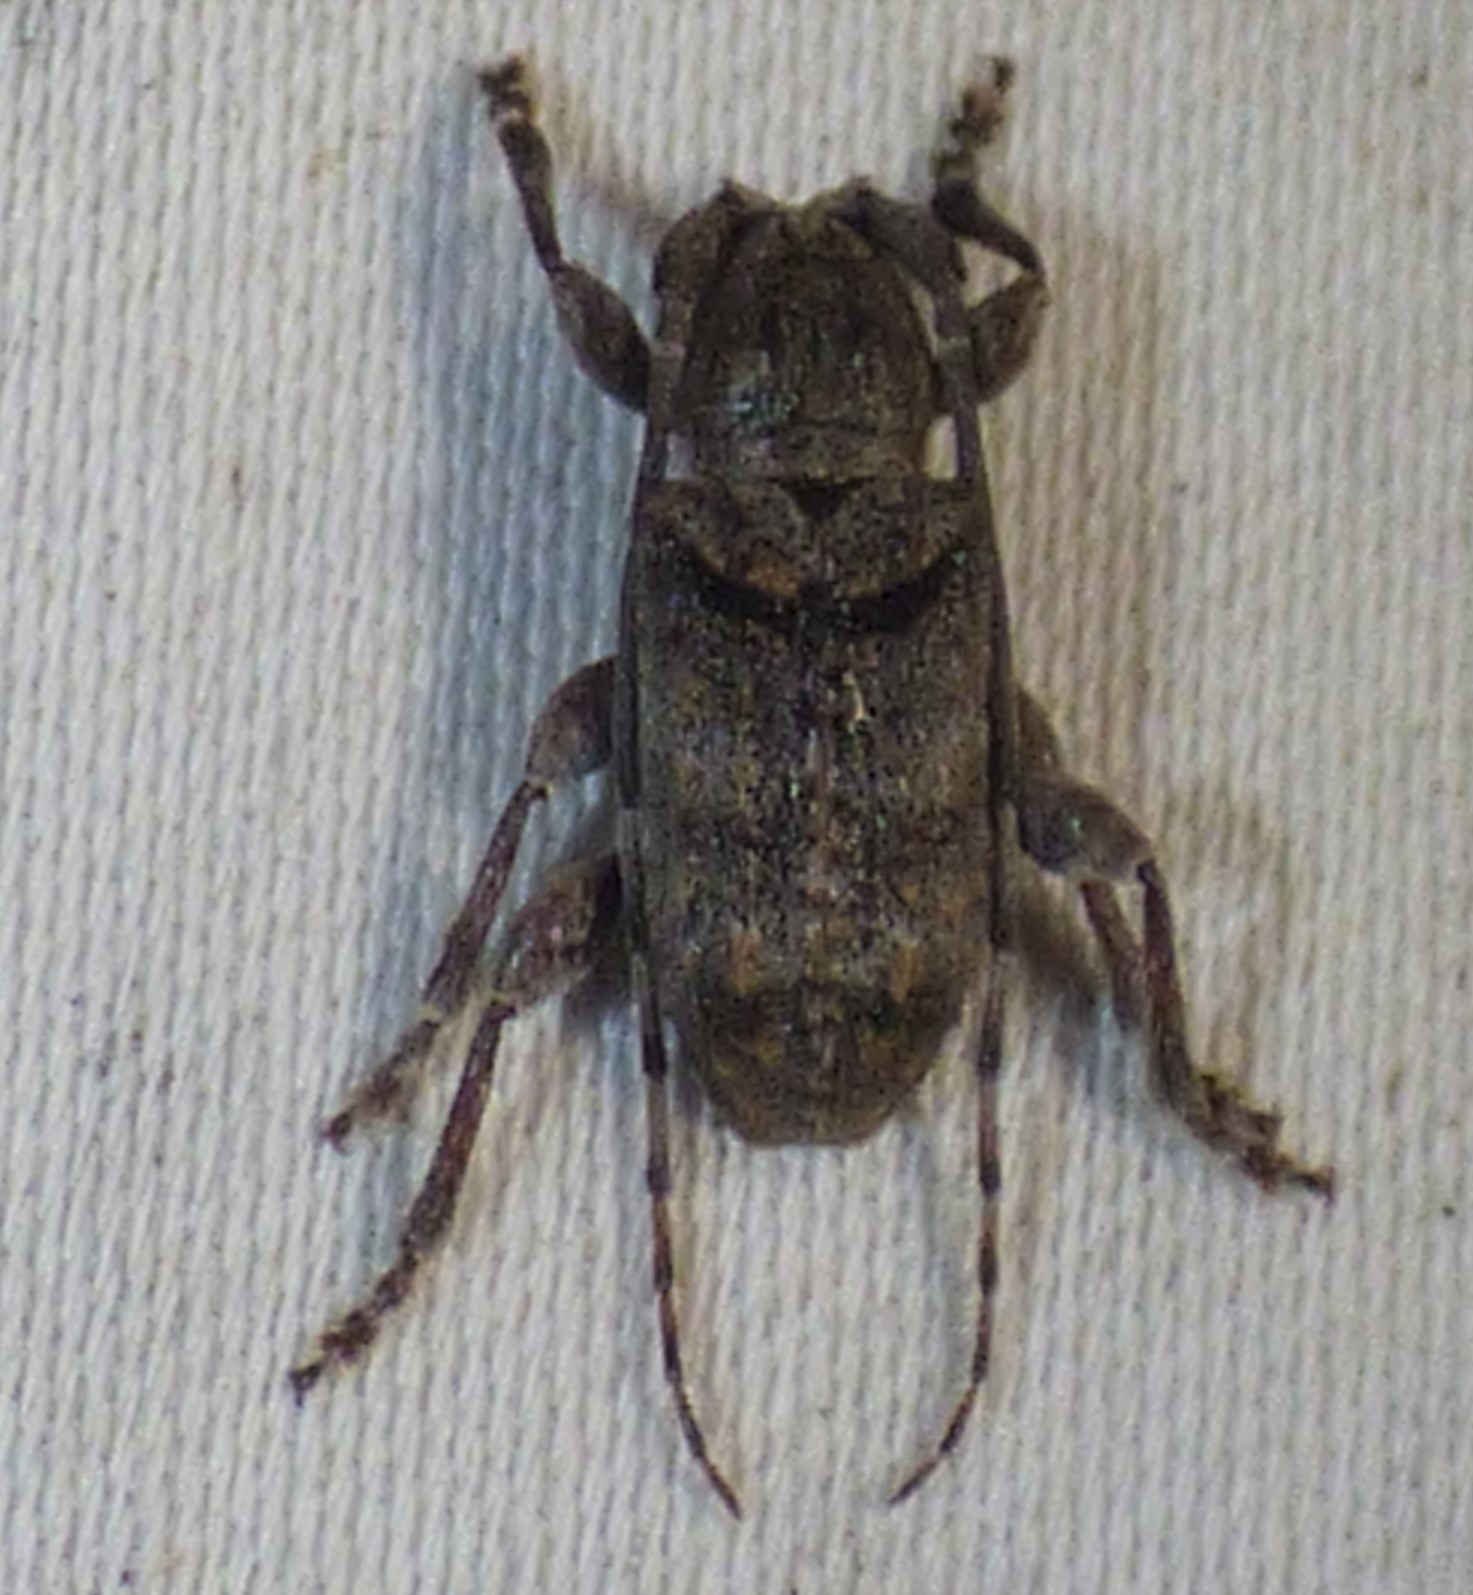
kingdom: Animalia
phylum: Arthropoda
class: Insecta
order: Coleoptera
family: Cerambycidae
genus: Ecyrus
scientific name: Ecyrus dasycerus
